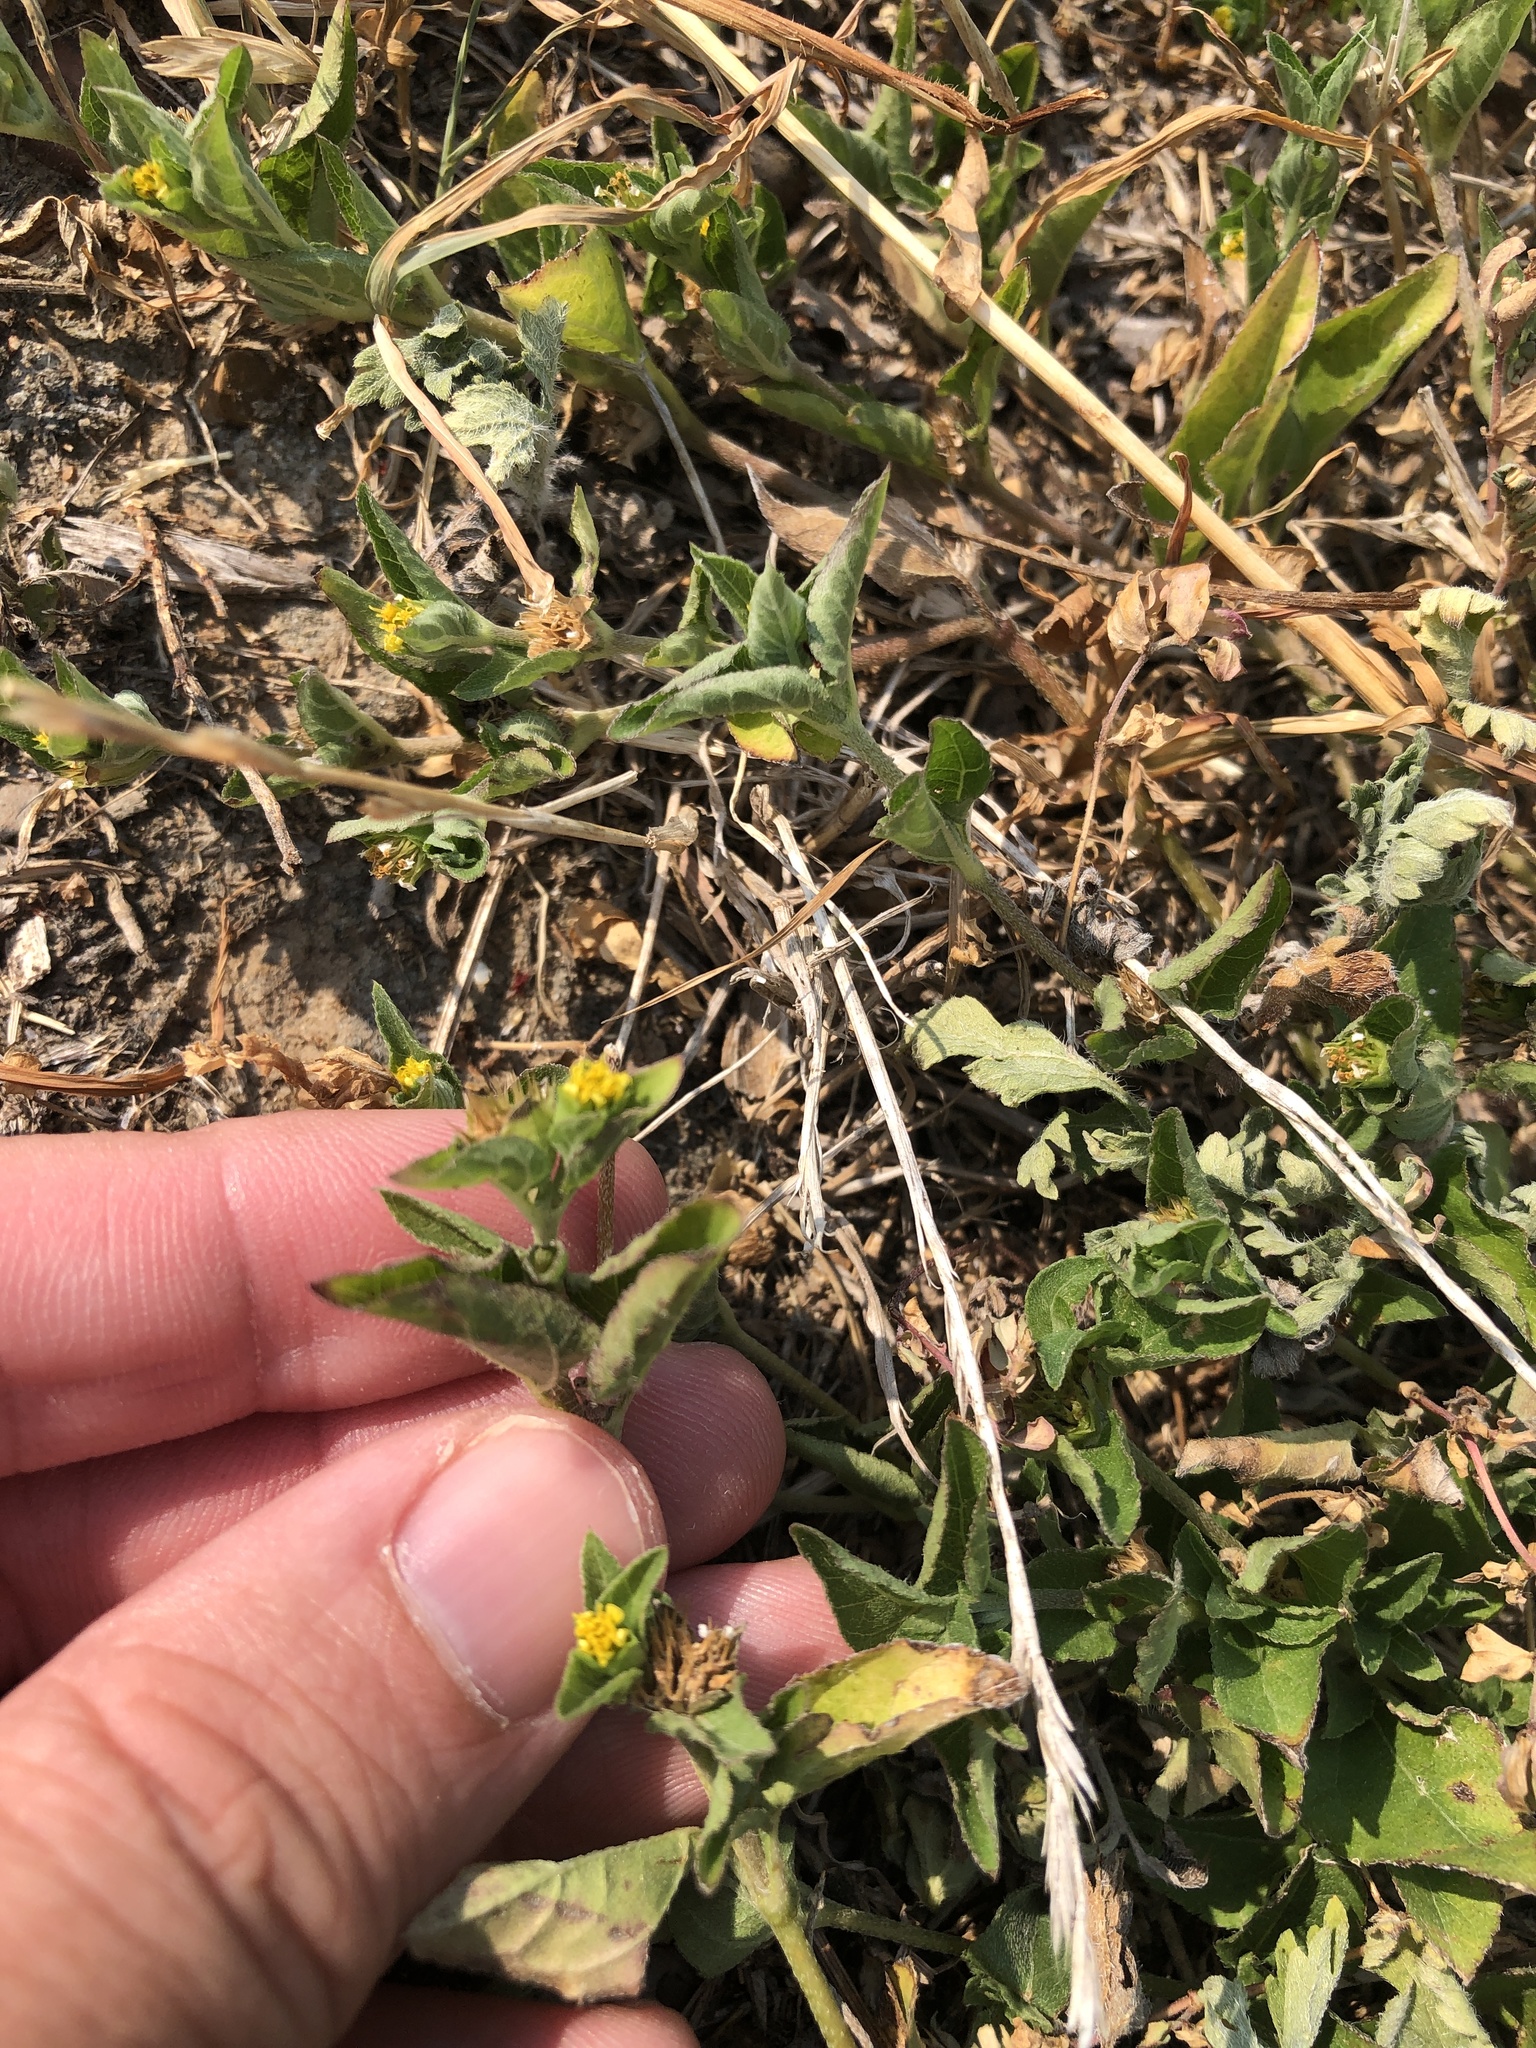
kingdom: Plantae
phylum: Tracheophyta
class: Magnoliopsida
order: Asterales
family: Asteraceae
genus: Calyptocarpus
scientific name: Calyptocarpus vialis
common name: Straggler daisy
